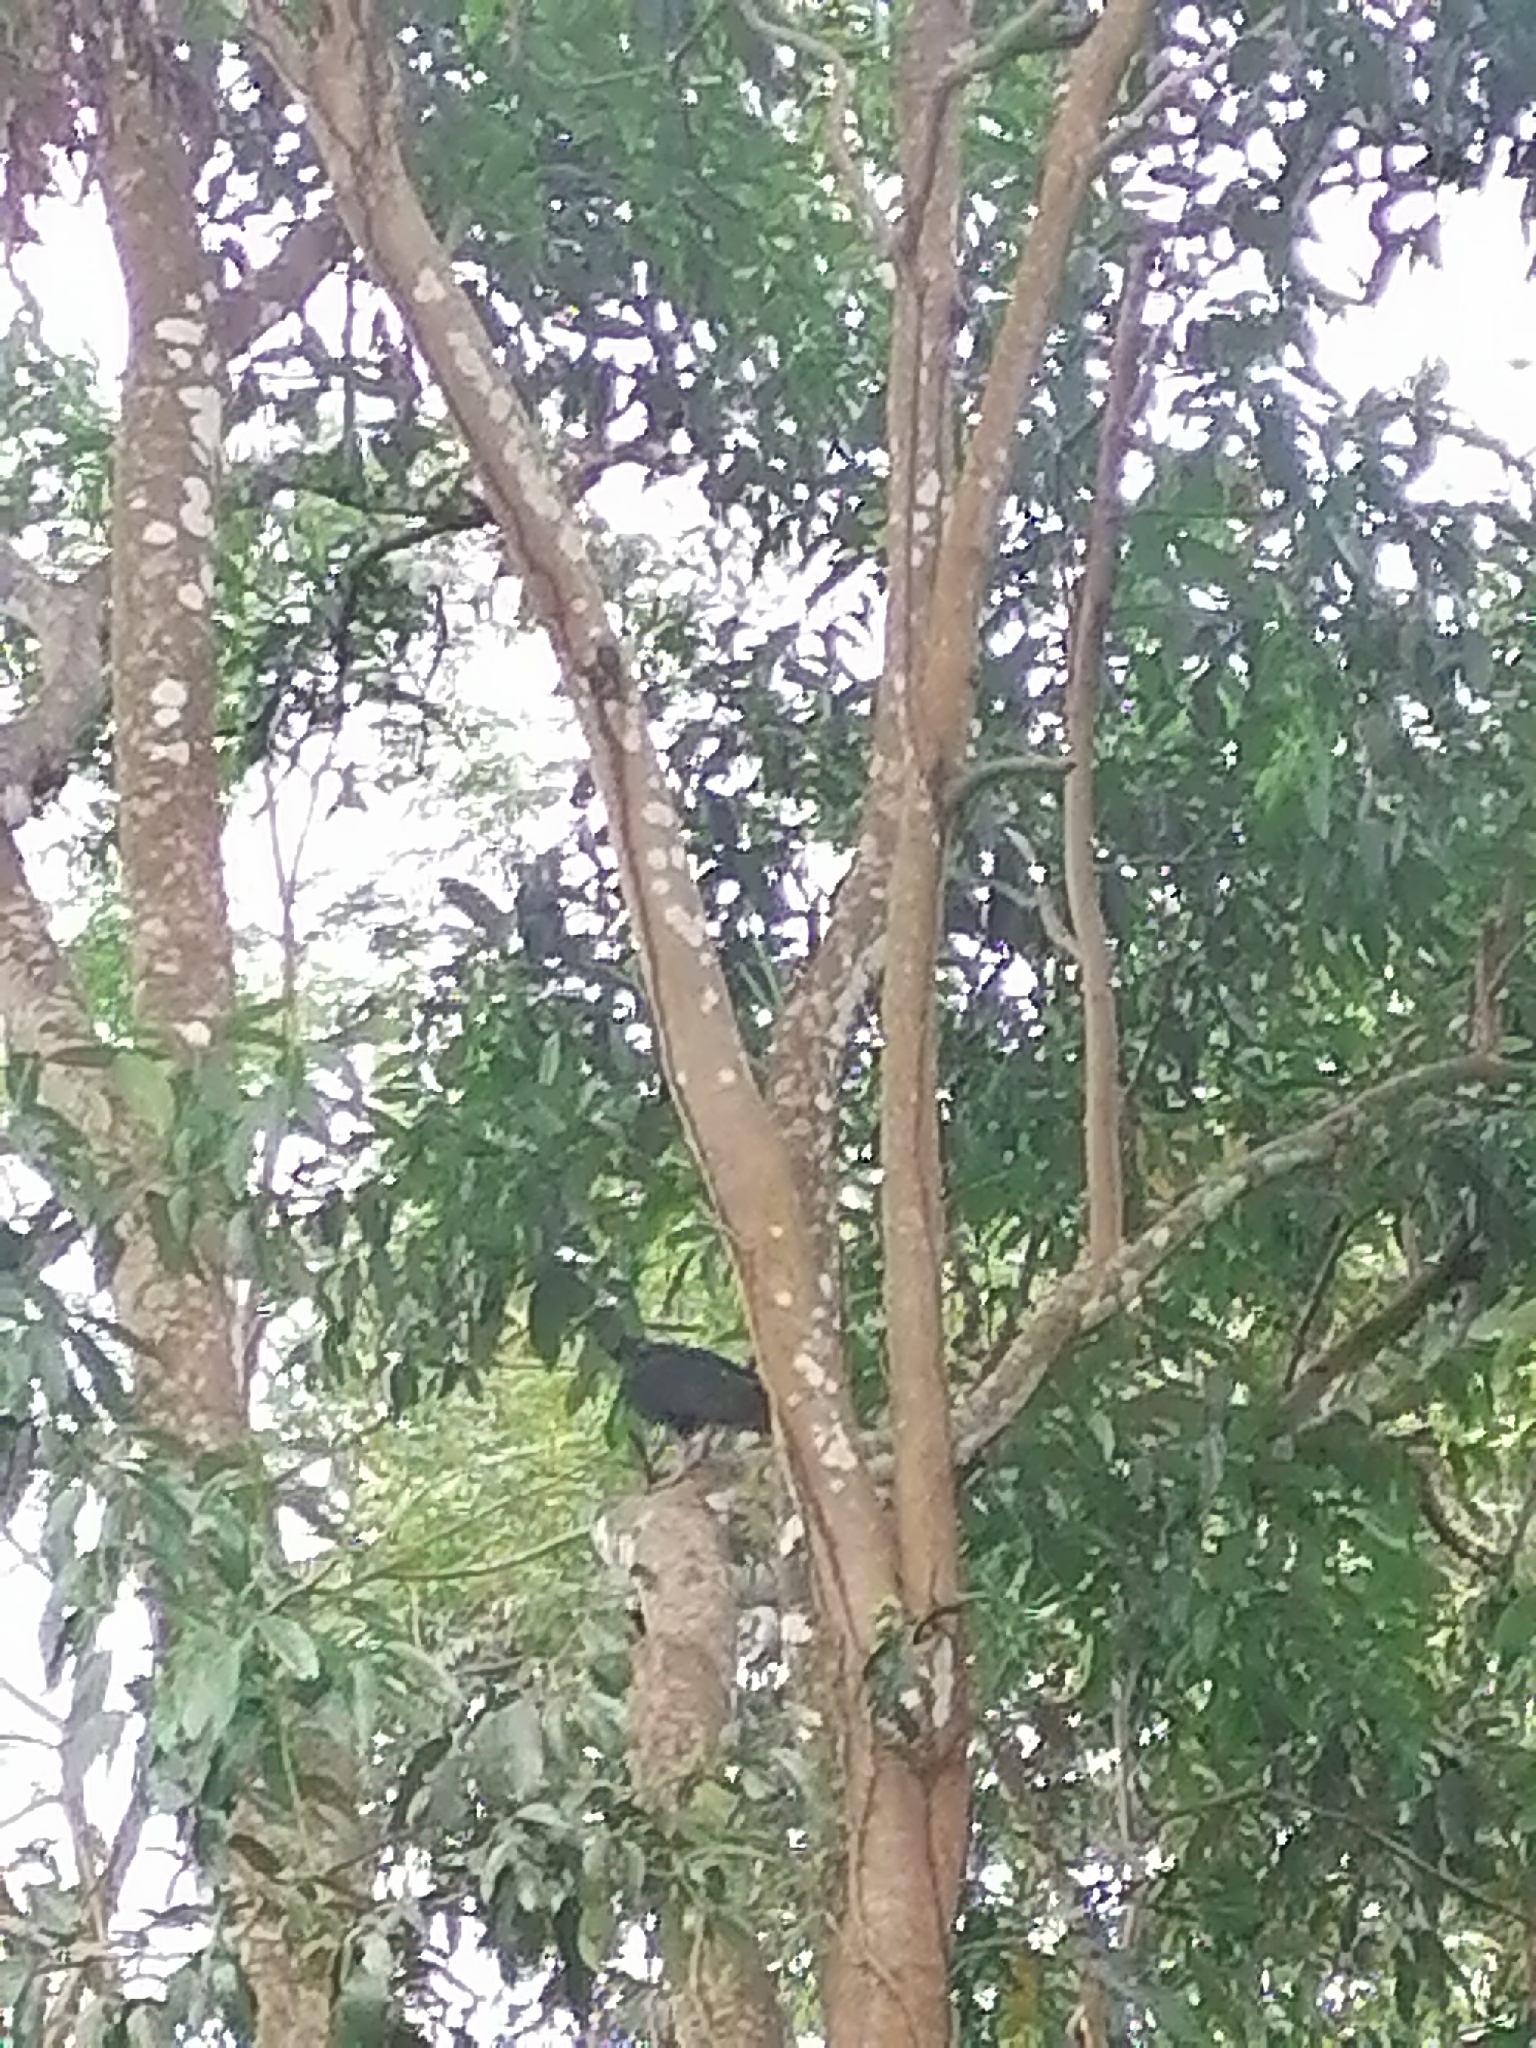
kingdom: Animalia
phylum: Chordata
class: Aves
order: Accipitriformes
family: Cathartidae
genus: Coragyps
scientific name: Coragyps atratus
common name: Black vulture
